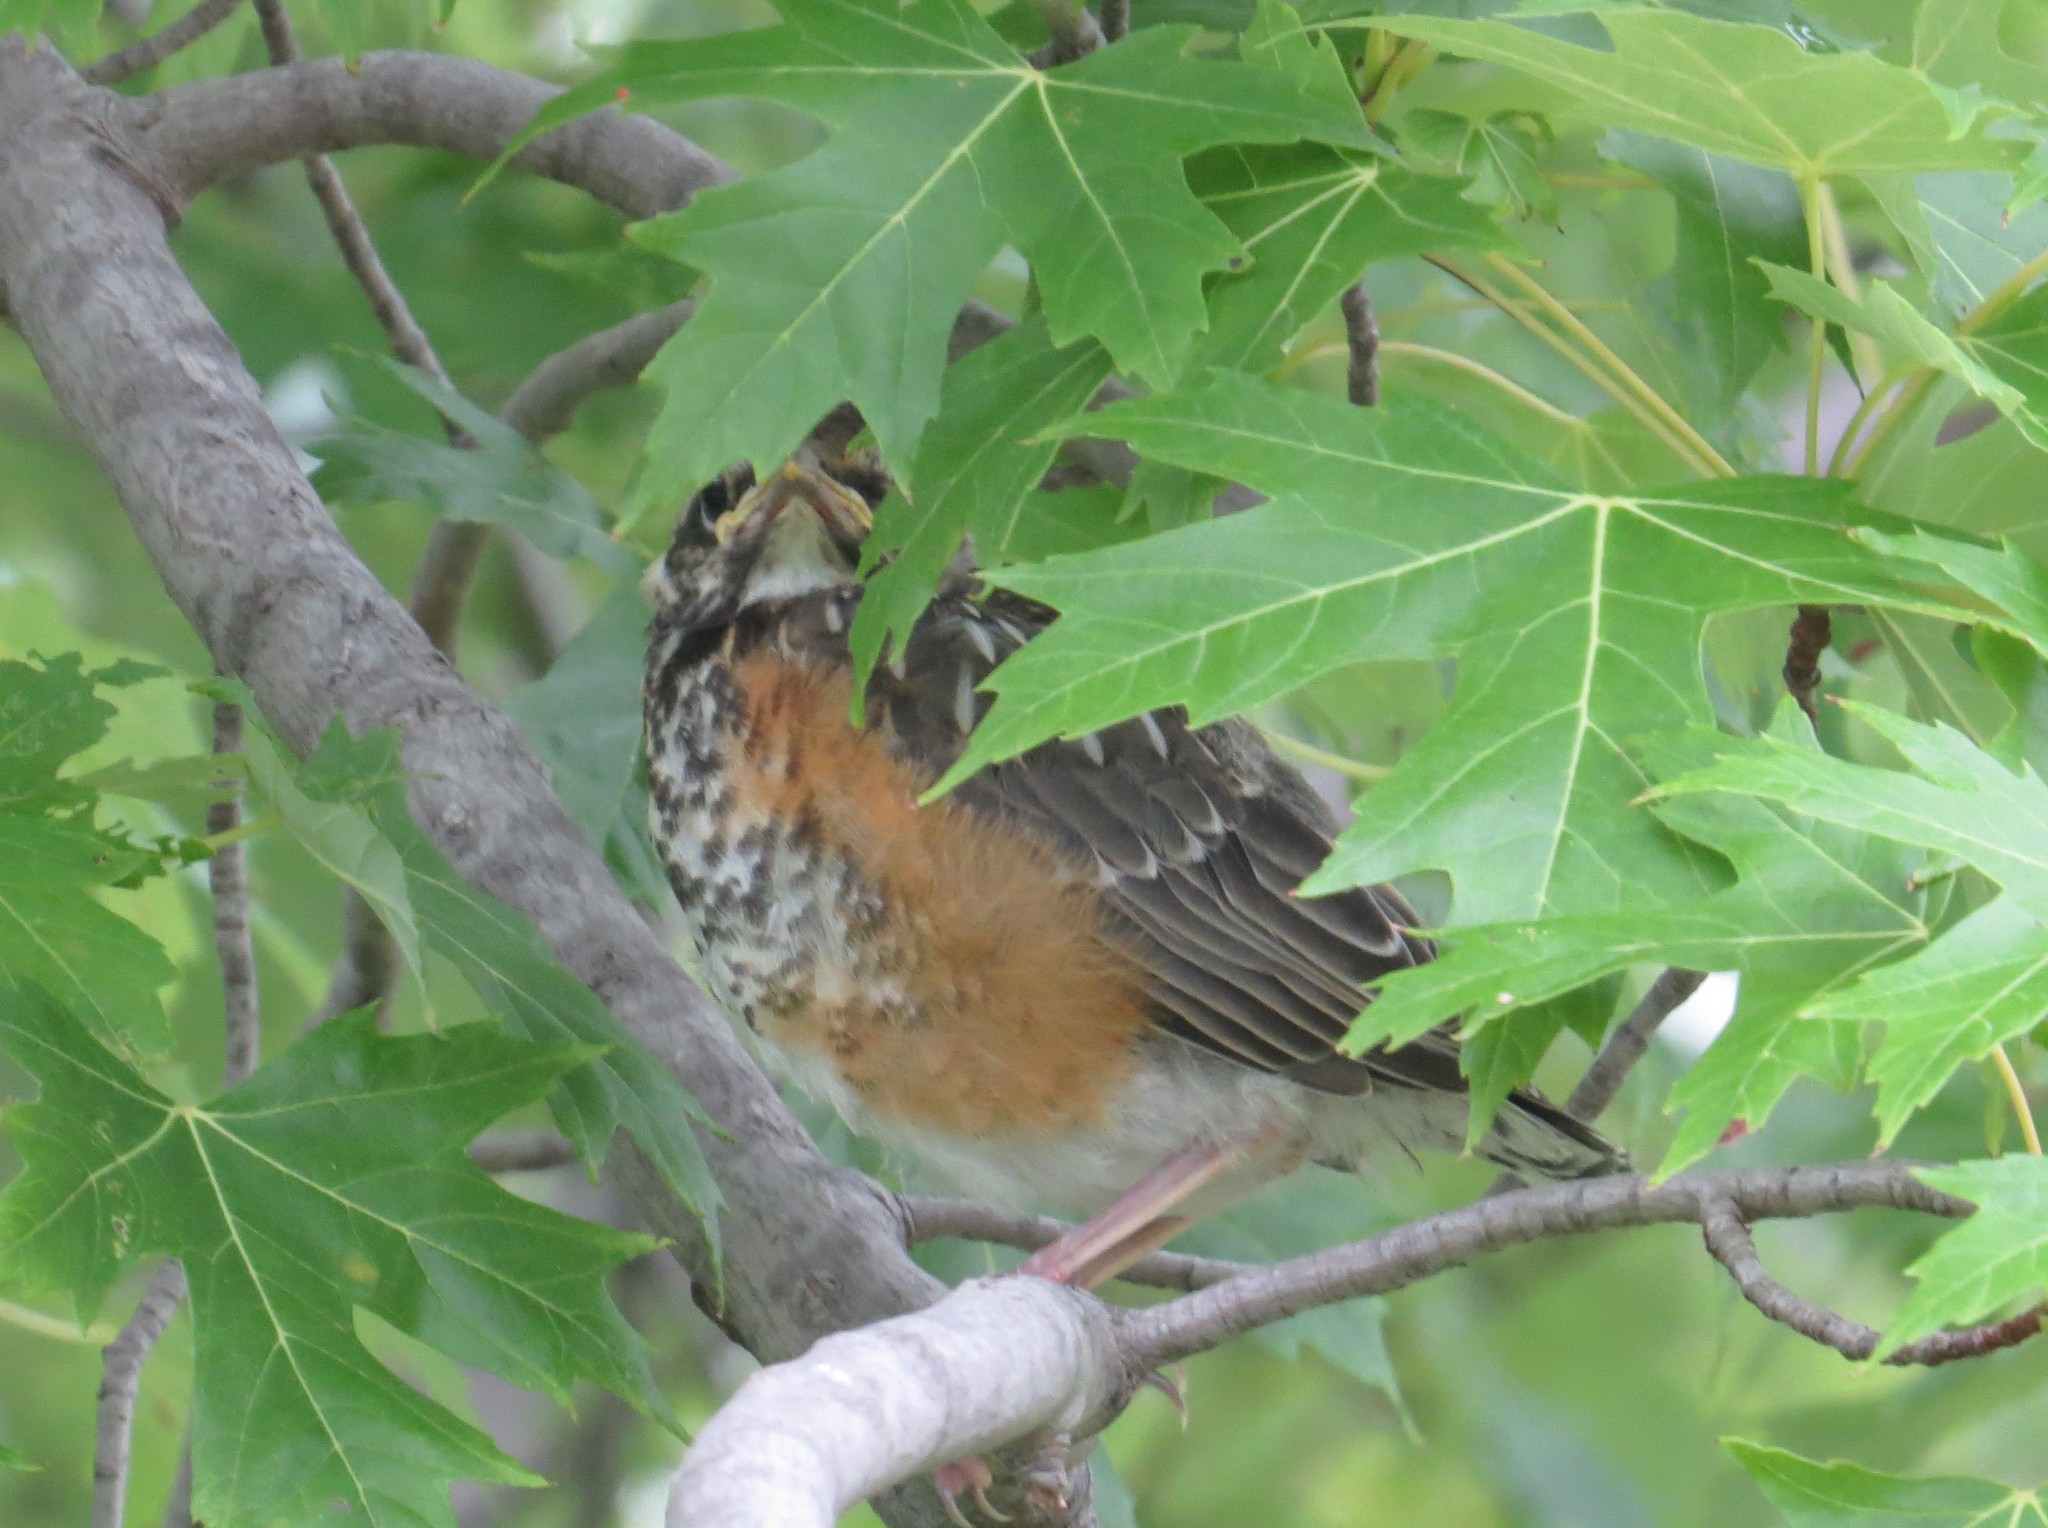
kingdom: Animalia
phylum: Chordata
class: Aves
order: Passeriformes
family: Turdidae
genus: Turdus
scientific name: Turdus migratorius
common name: American robin
